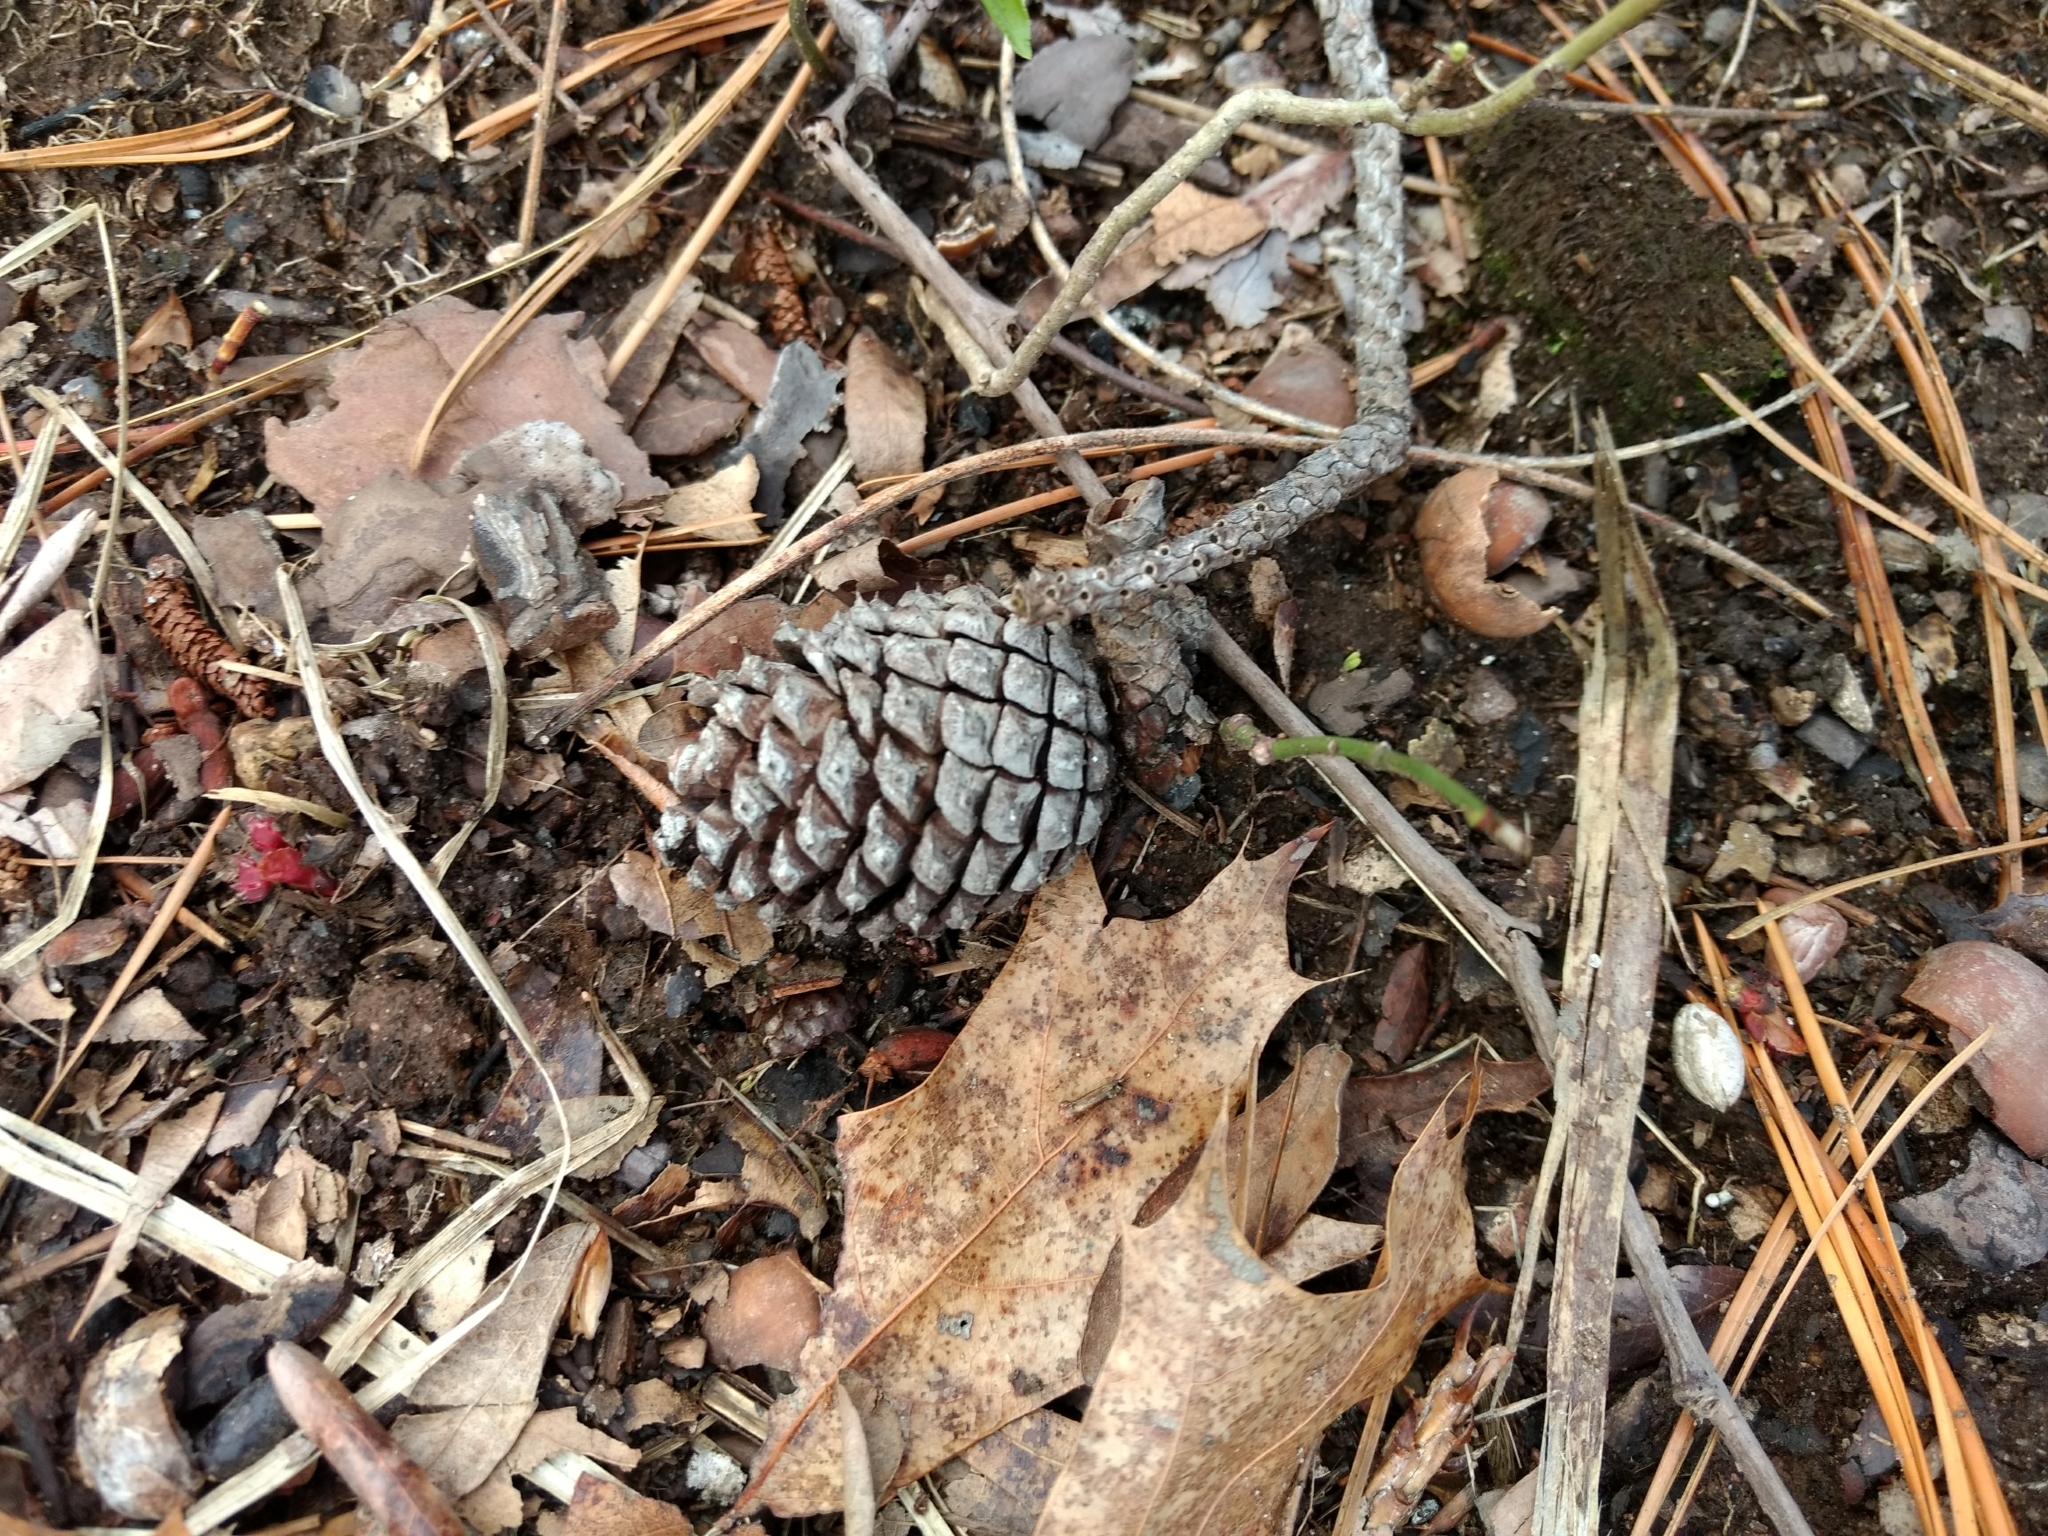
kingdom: Plantae
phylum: Tracheophyta
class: Pinopsida
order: Pinales
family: Pinaceae
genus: Pinus
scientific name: Pinus rigida
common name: Pitch pine
